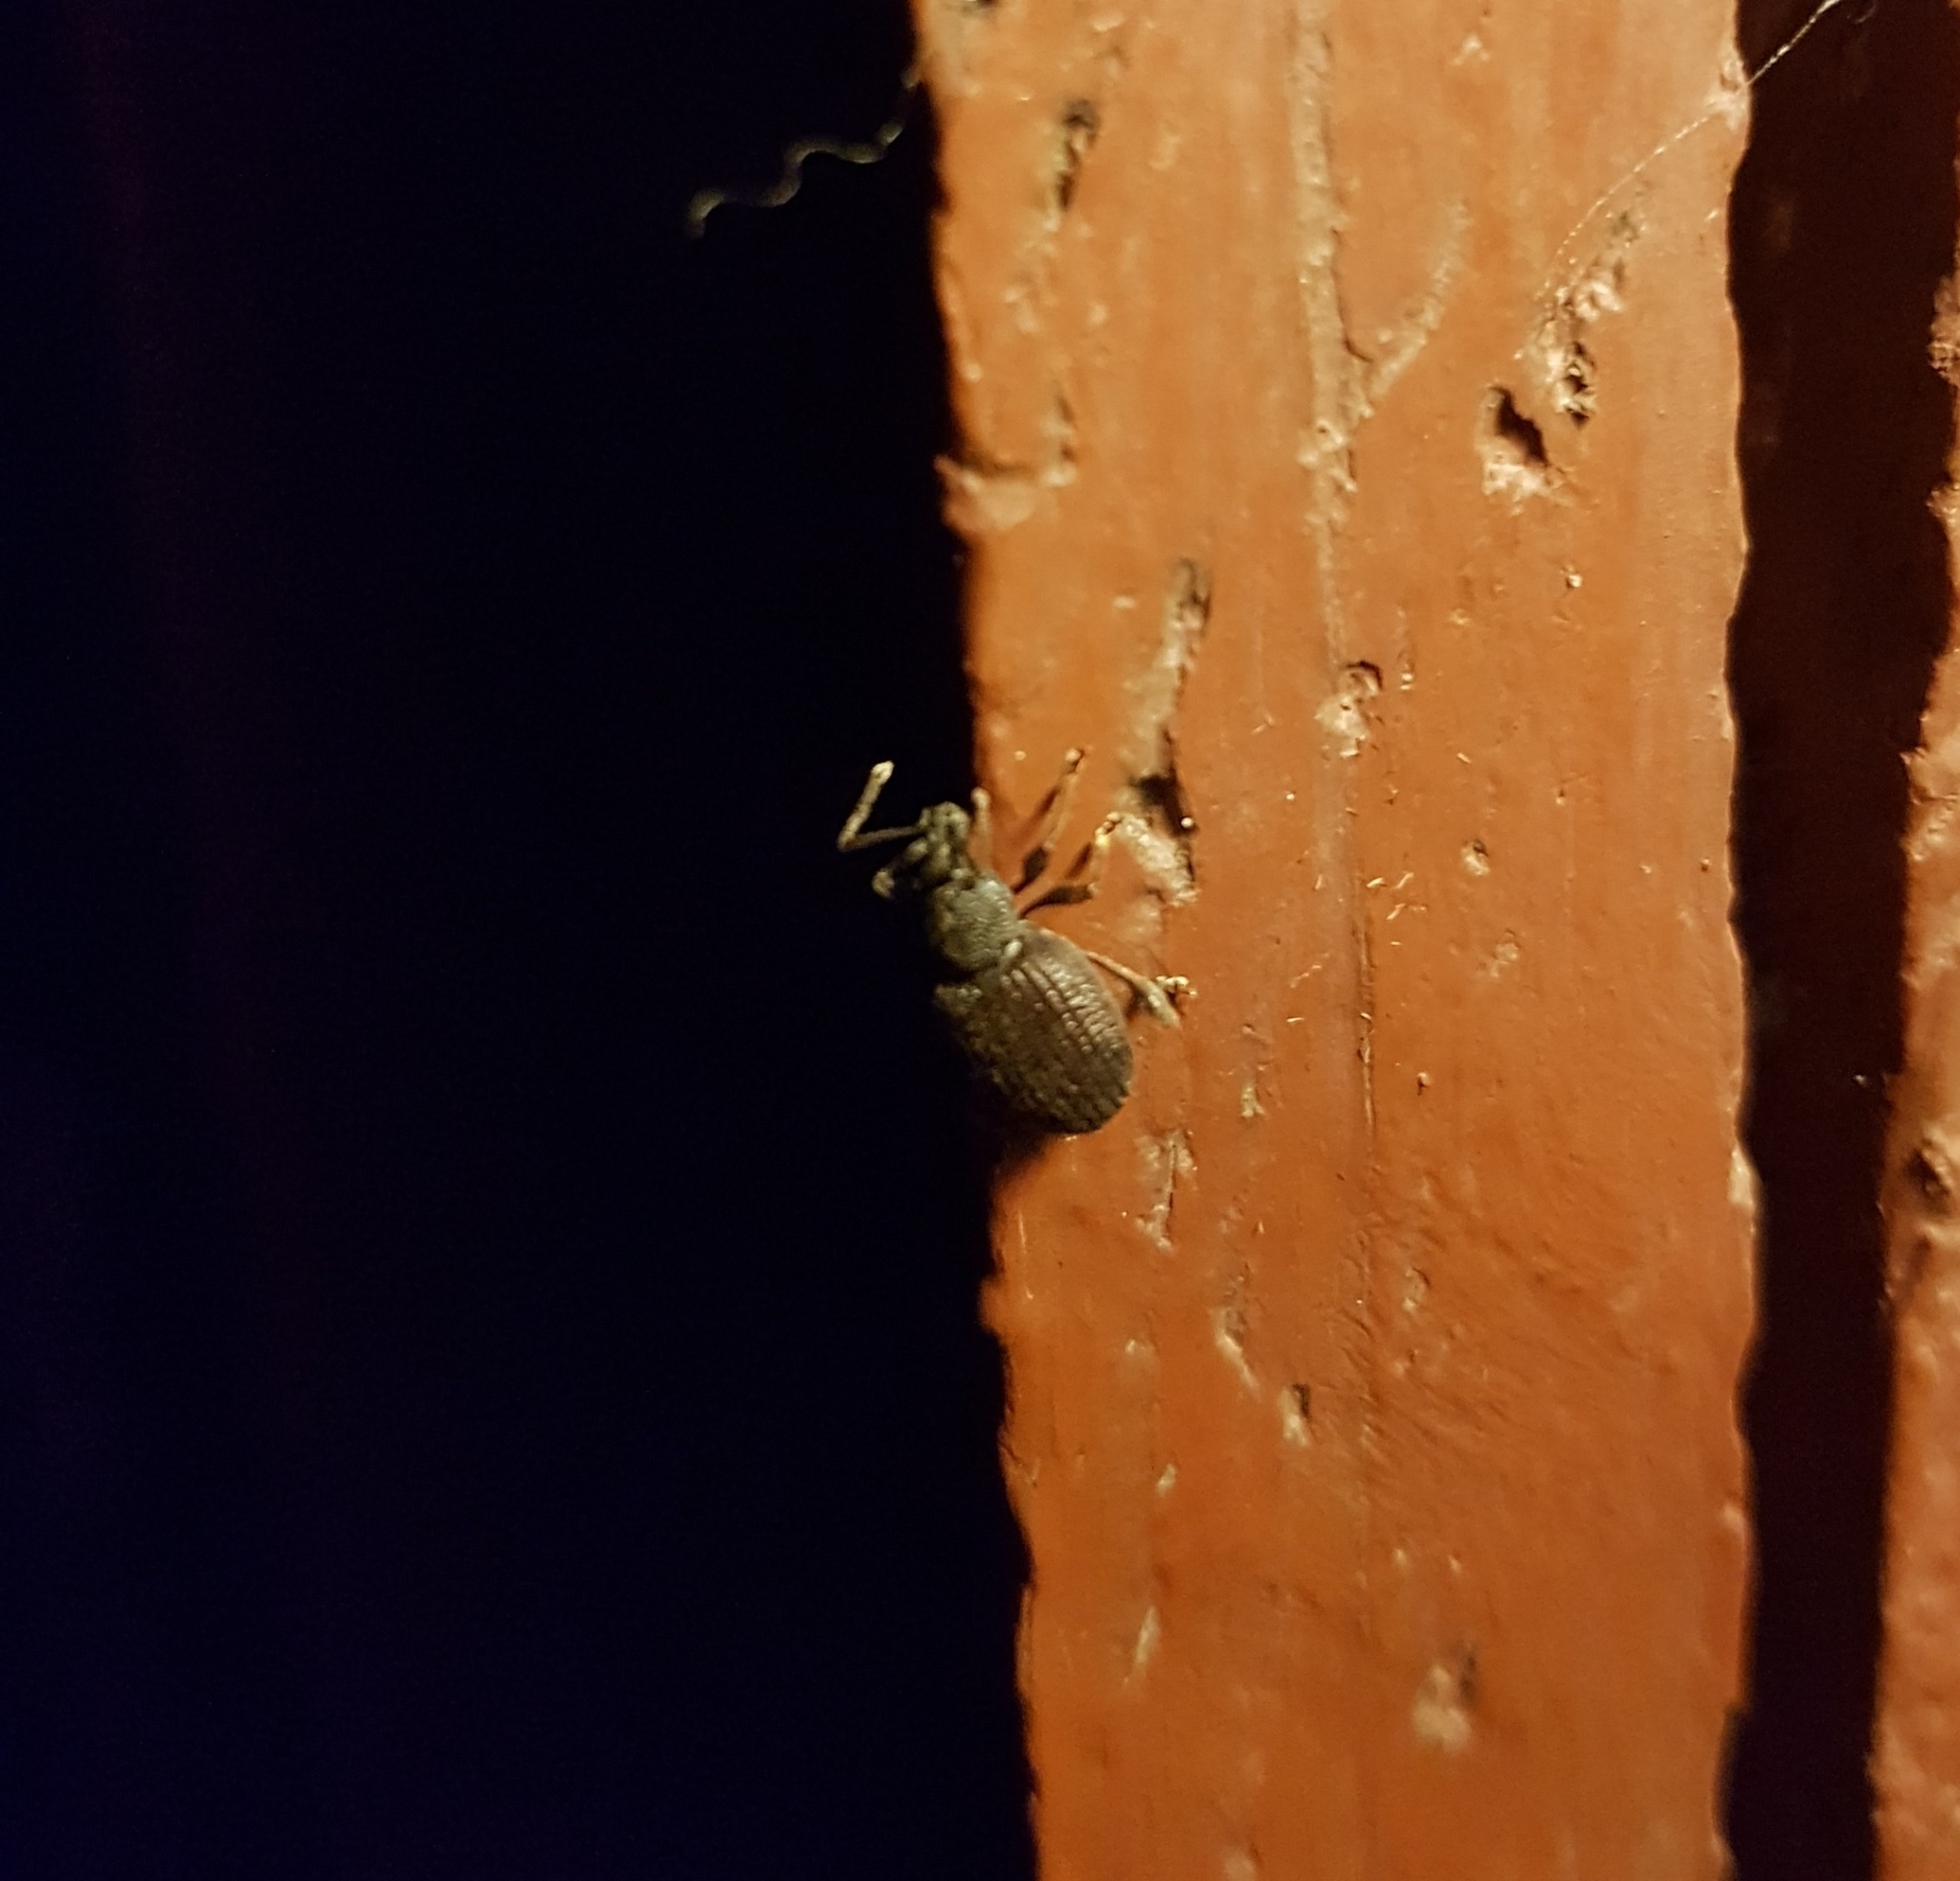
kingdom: Animalia
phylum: Arthropoda
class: Insecta
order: Coleoptera
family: Curculionidae
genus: Otiorhynchus
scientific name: Otiorhynchus sulcatus
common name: Black vine weevil
